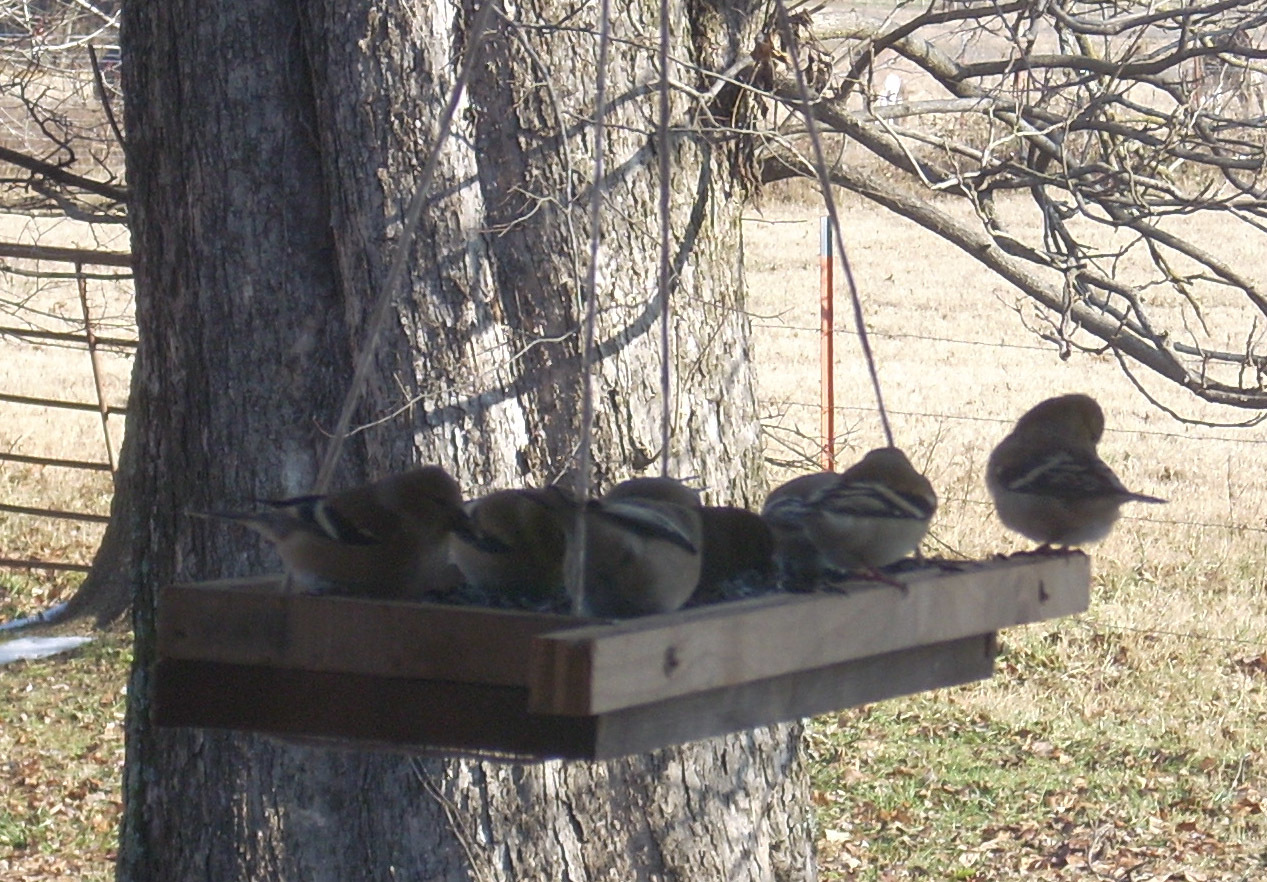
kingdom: Animalia
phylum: Chordata
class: Aves
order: Passeriformes
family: Fringillidae
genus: Spinus
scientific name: Spinus tristis
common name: American goldfinch
